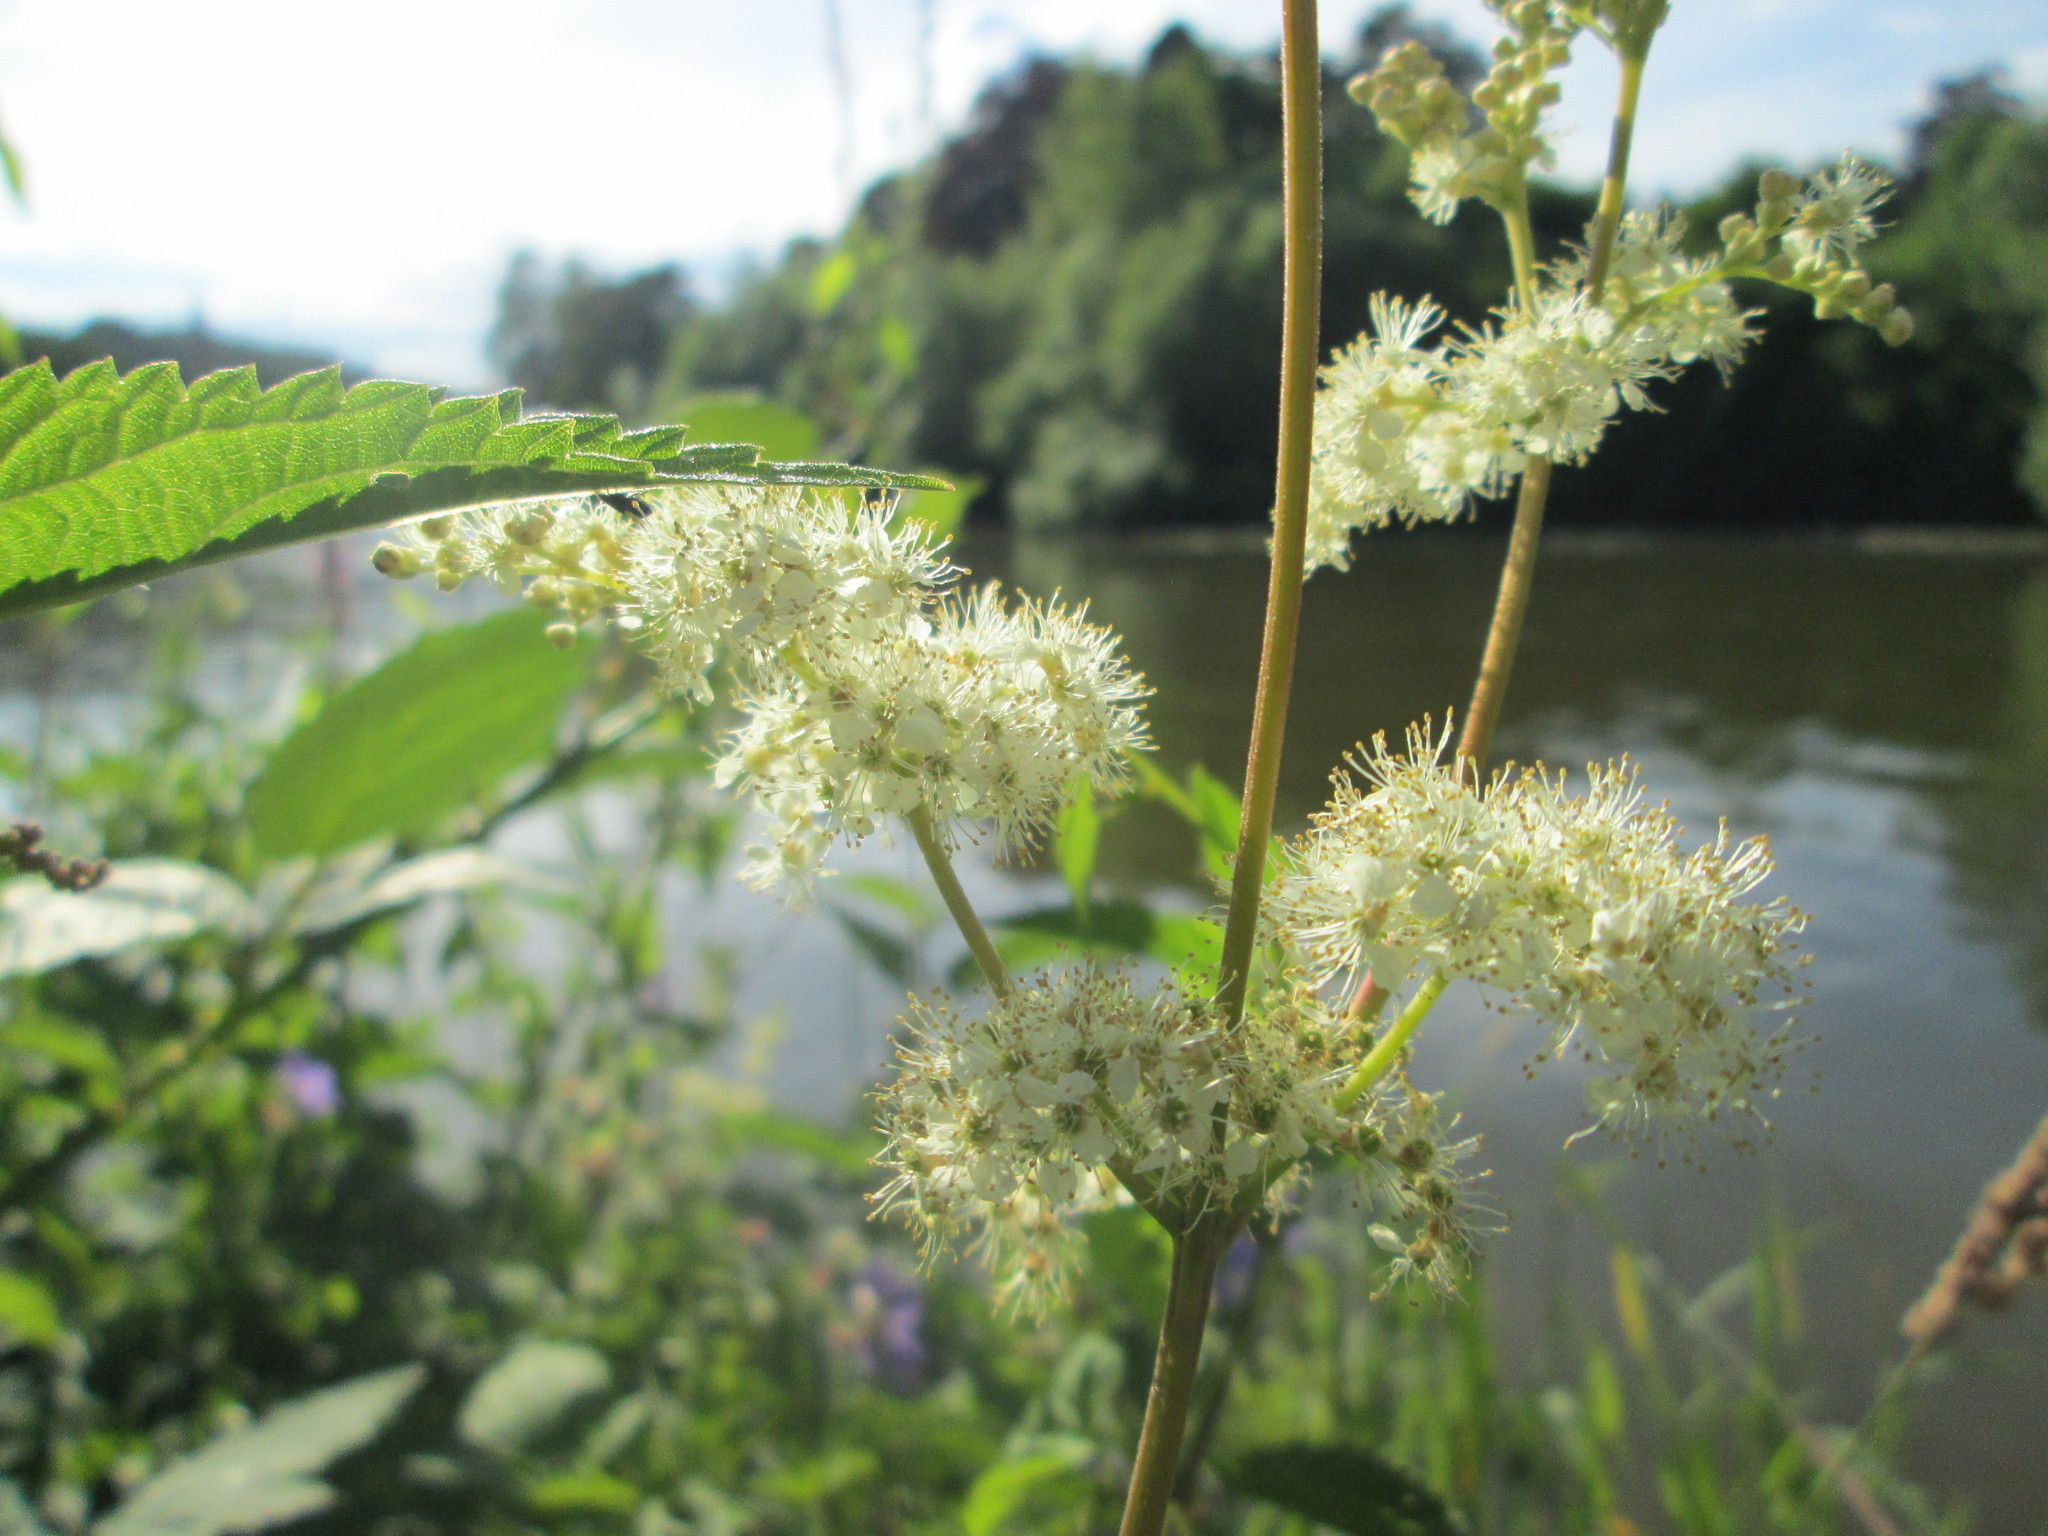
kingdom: Plantae
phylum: Tracheophyta
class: Magnoliopsida
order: Rosales
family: Rosaceae
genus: Filipendula
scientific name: Filipendula ulmaria
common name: Meadowsweet
